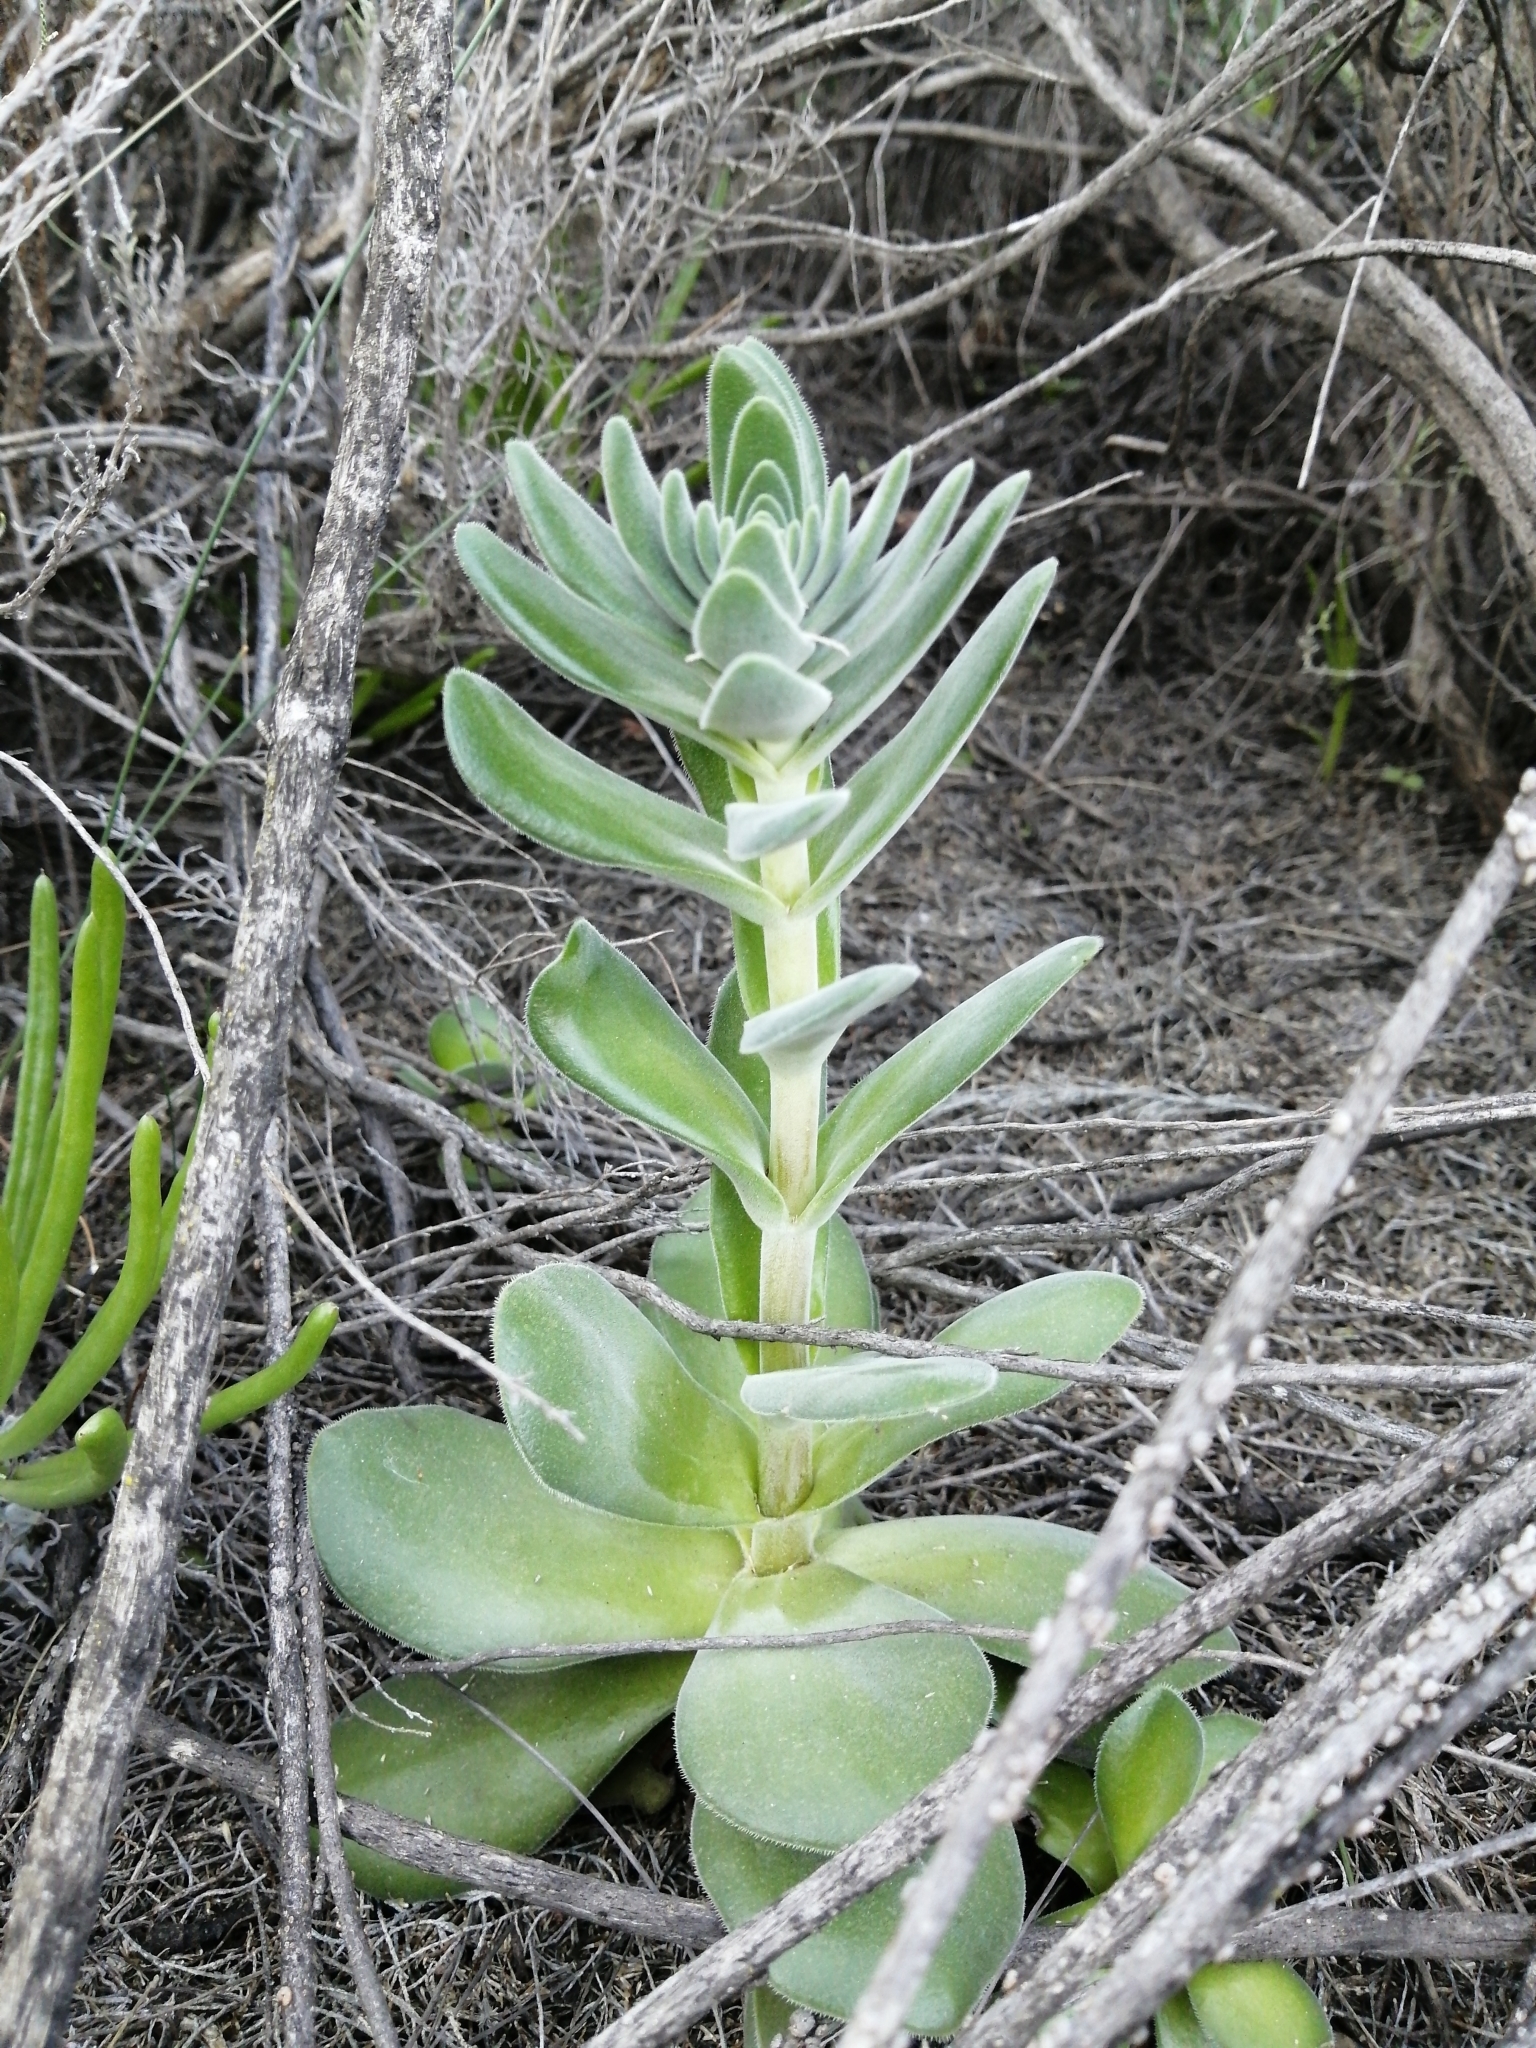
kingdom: Plantae
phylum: Tracheophyta
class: Magnoliopsida
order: Saxifragales
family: Crassulaceae
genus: Crassula
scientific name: Crassula tomentosa
